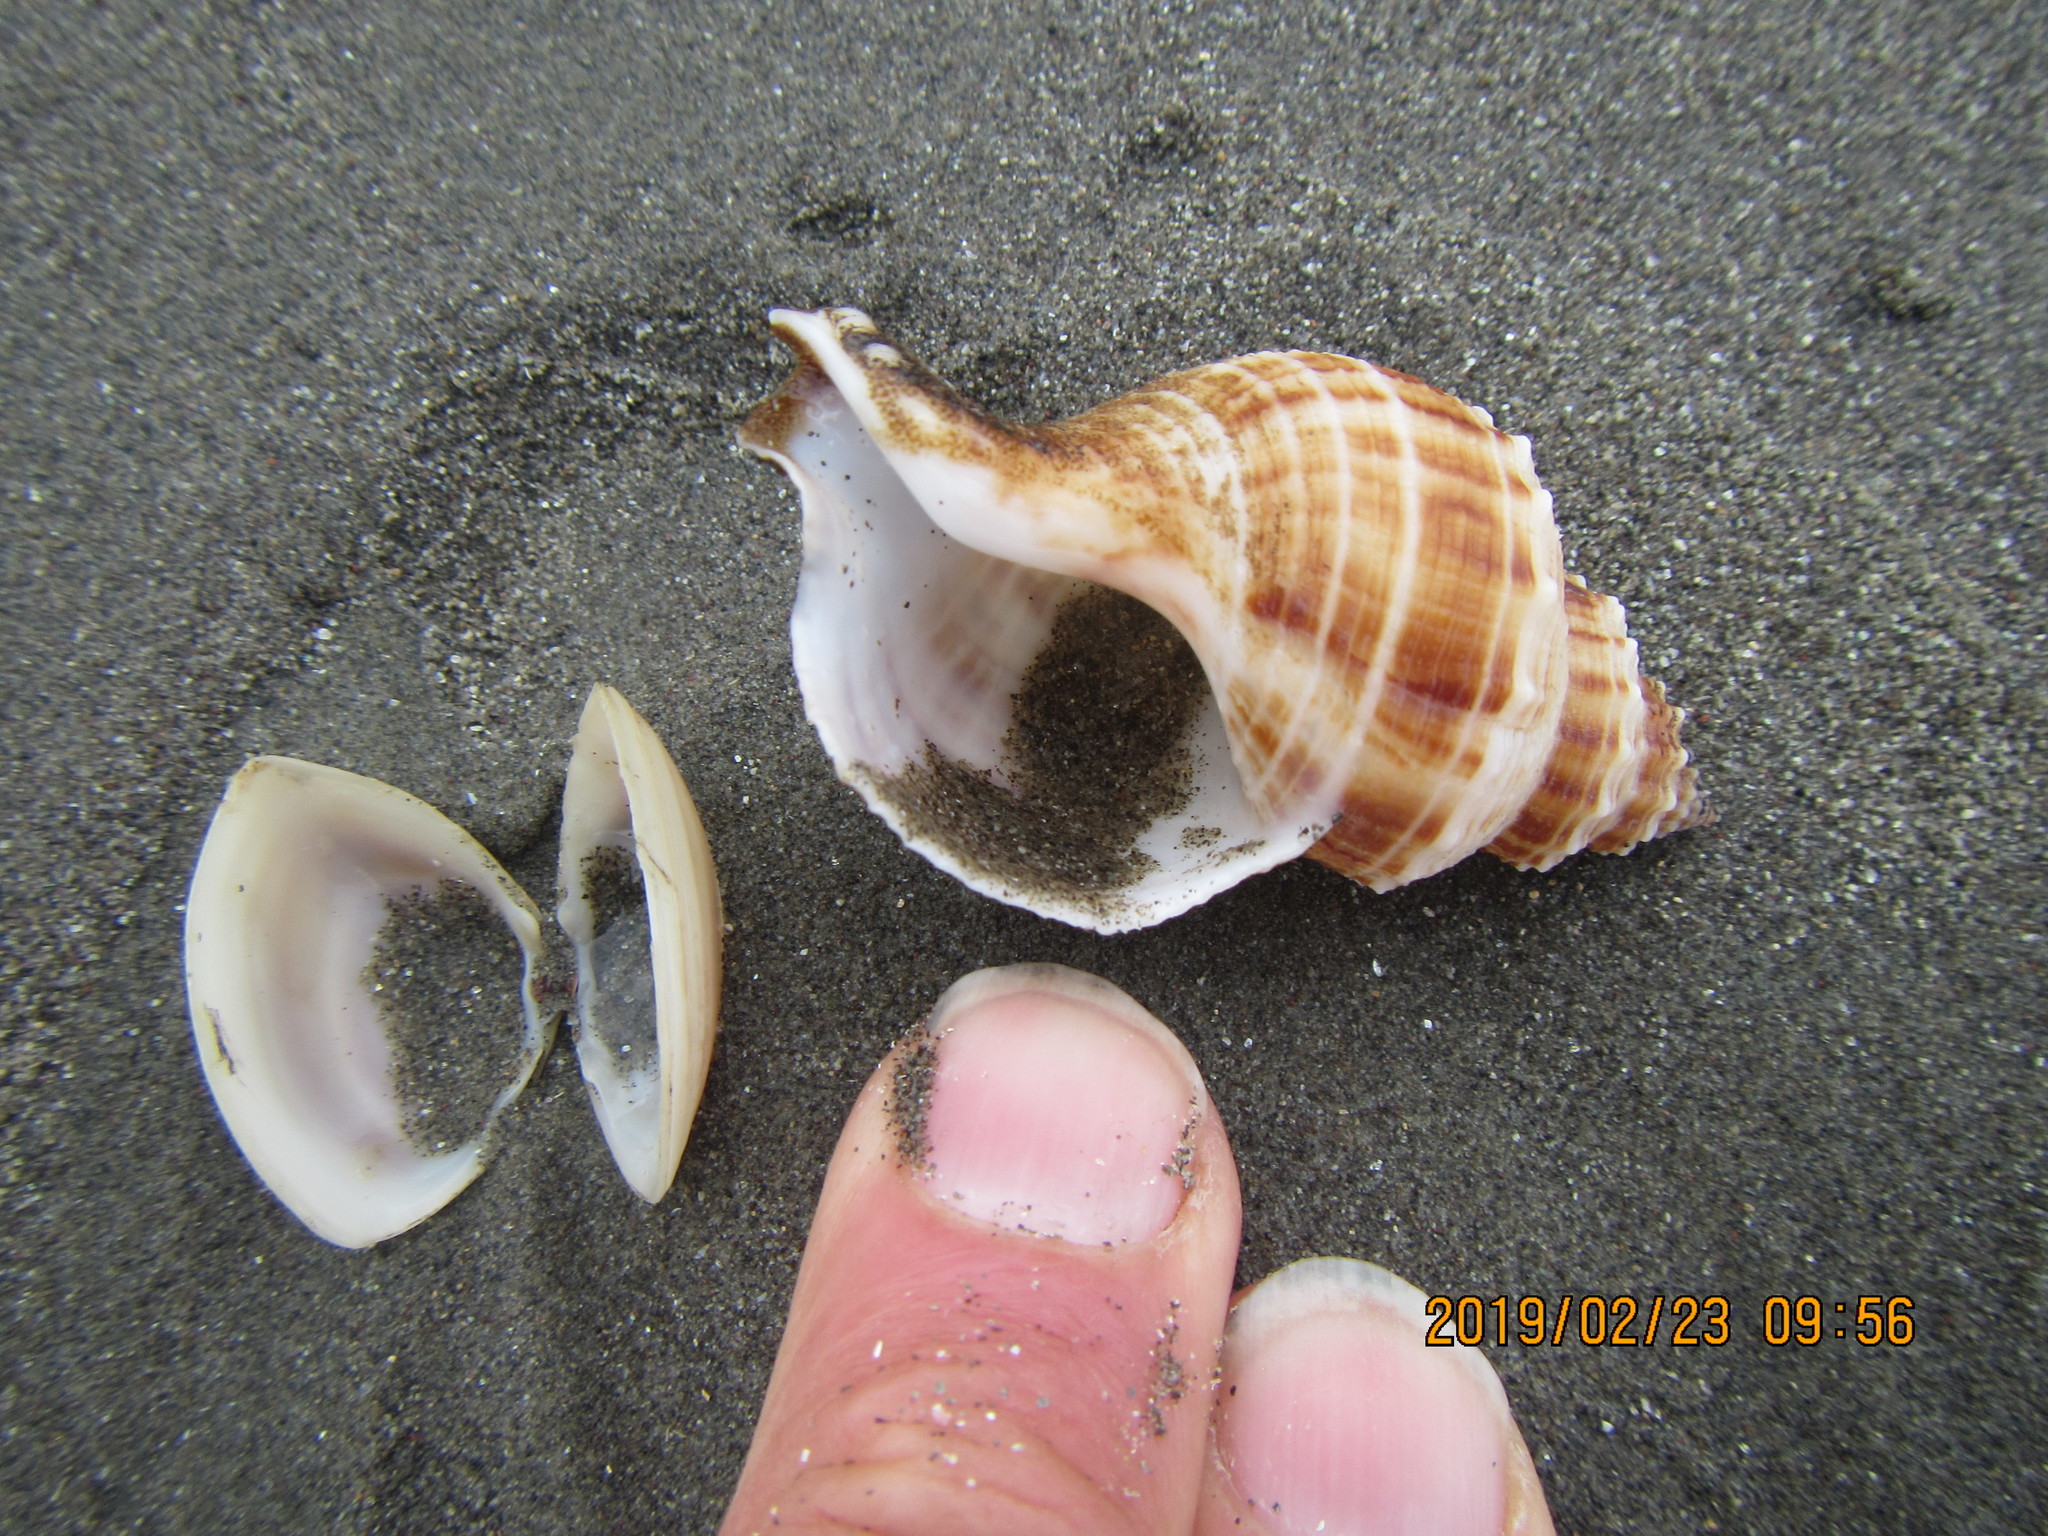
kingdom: Animalia
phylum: Mollusca
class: Gastropoda
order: Neogastropoda
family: Prosiphonidae
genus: Austrofusus
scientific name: Austrofusus glans
